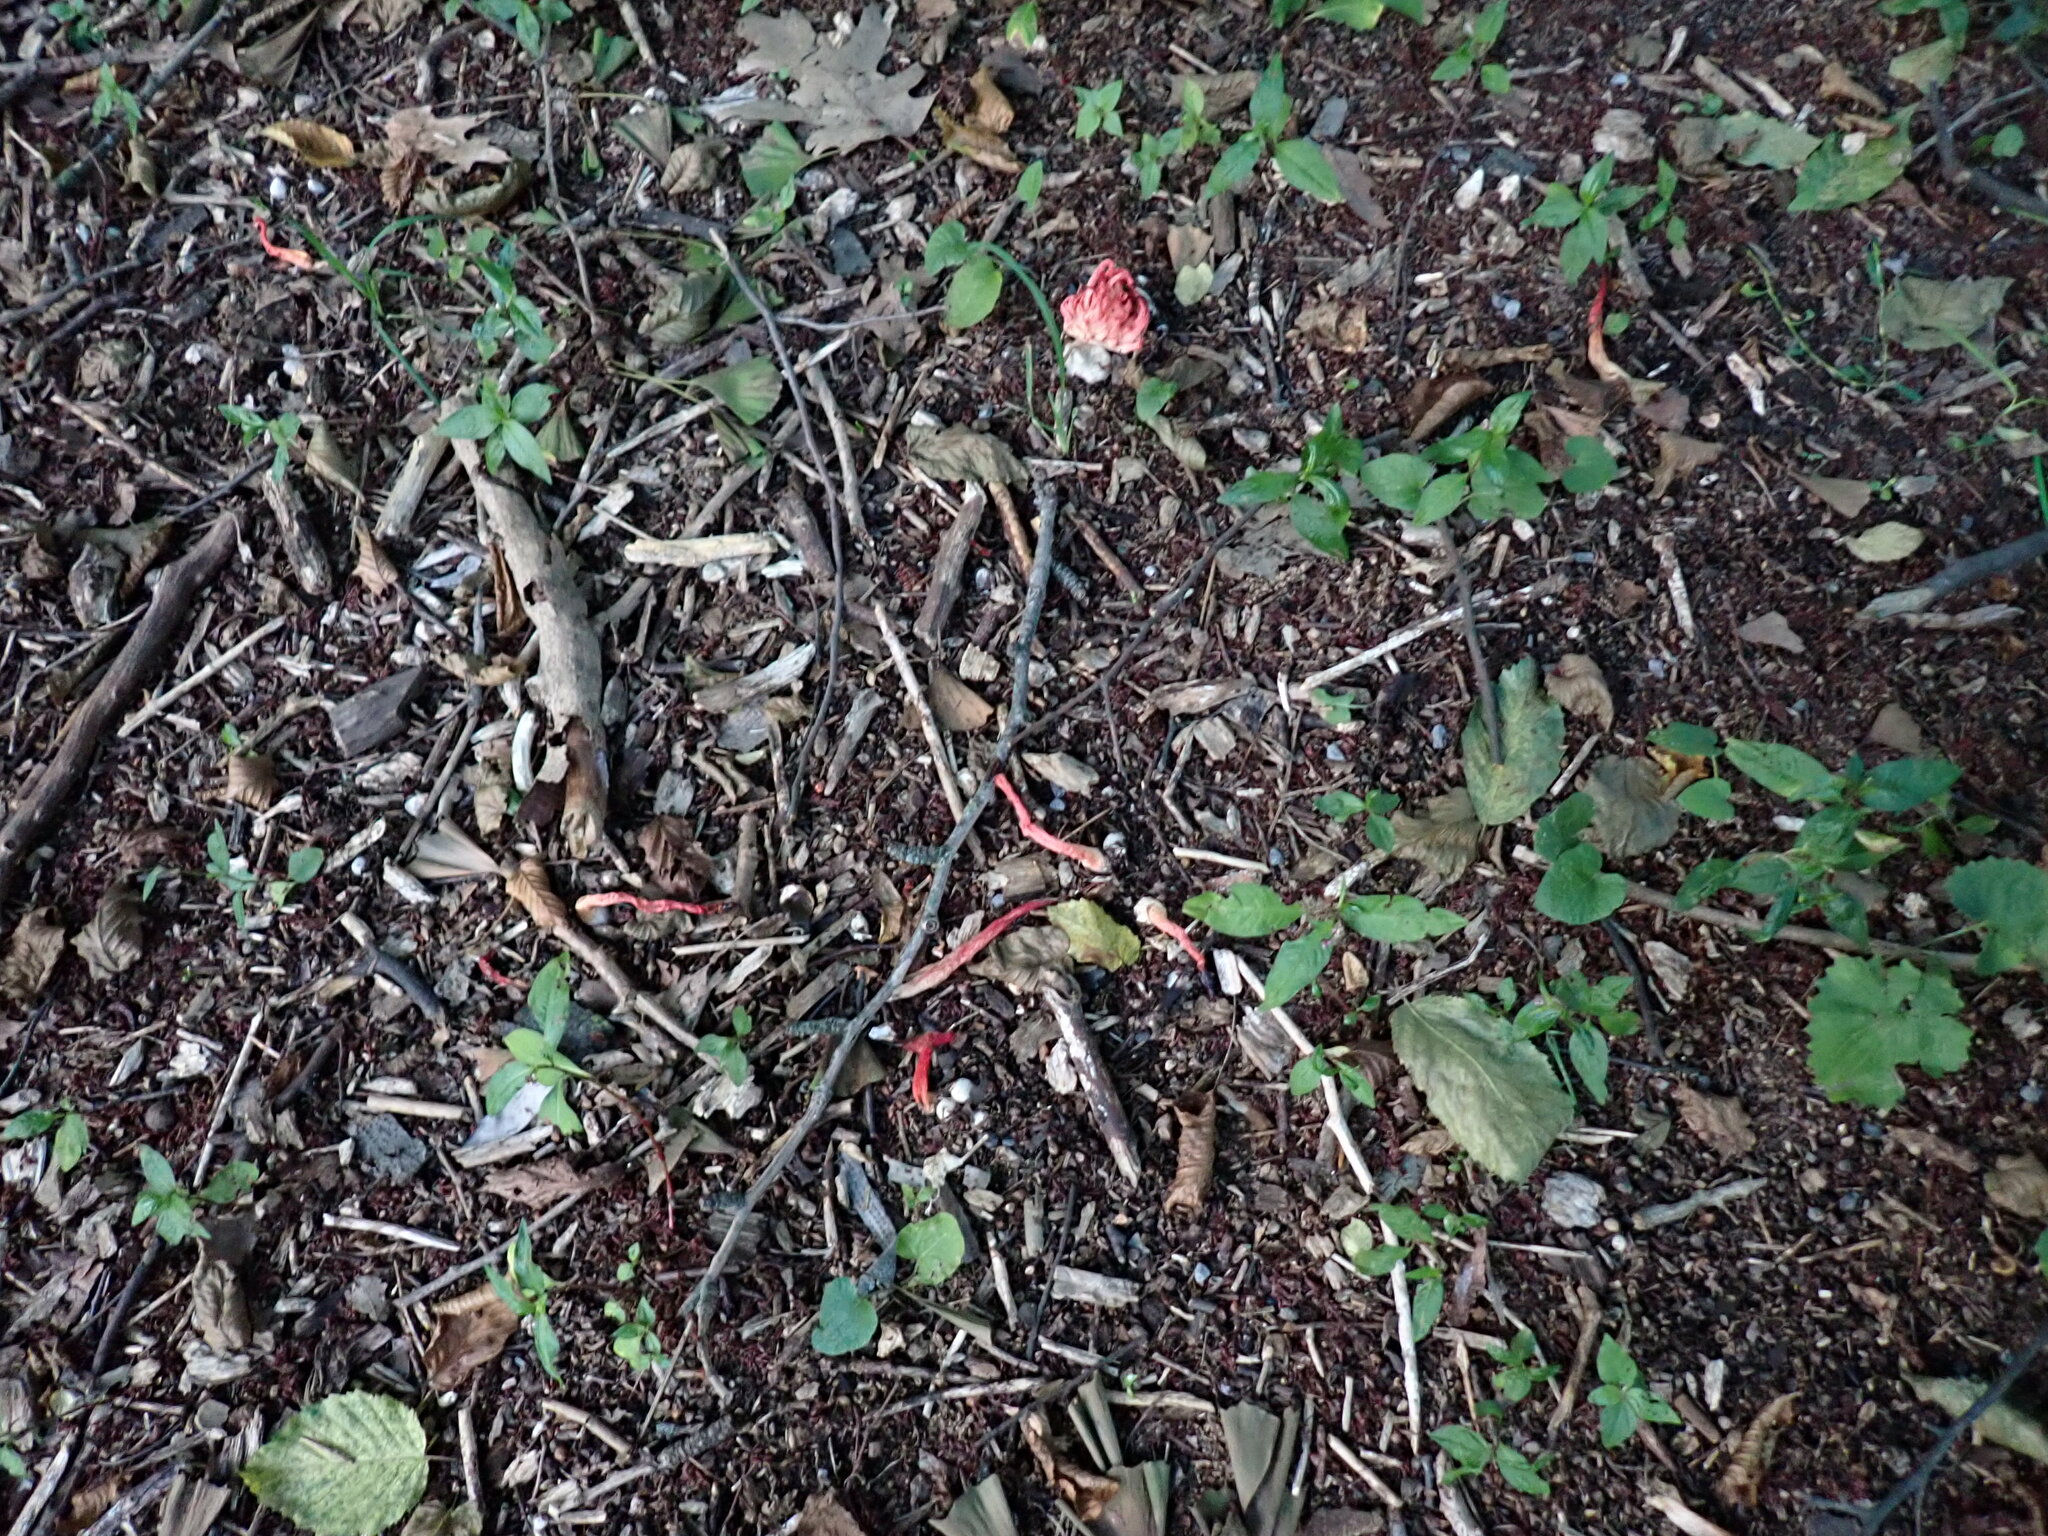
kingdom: Fungi
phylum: Basidiomycota
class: Agaricomycetes
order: Phallales
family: Phallaceae
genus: Phallus
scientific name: Phallus rugulosus
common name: Wrinkly stinkhorn
